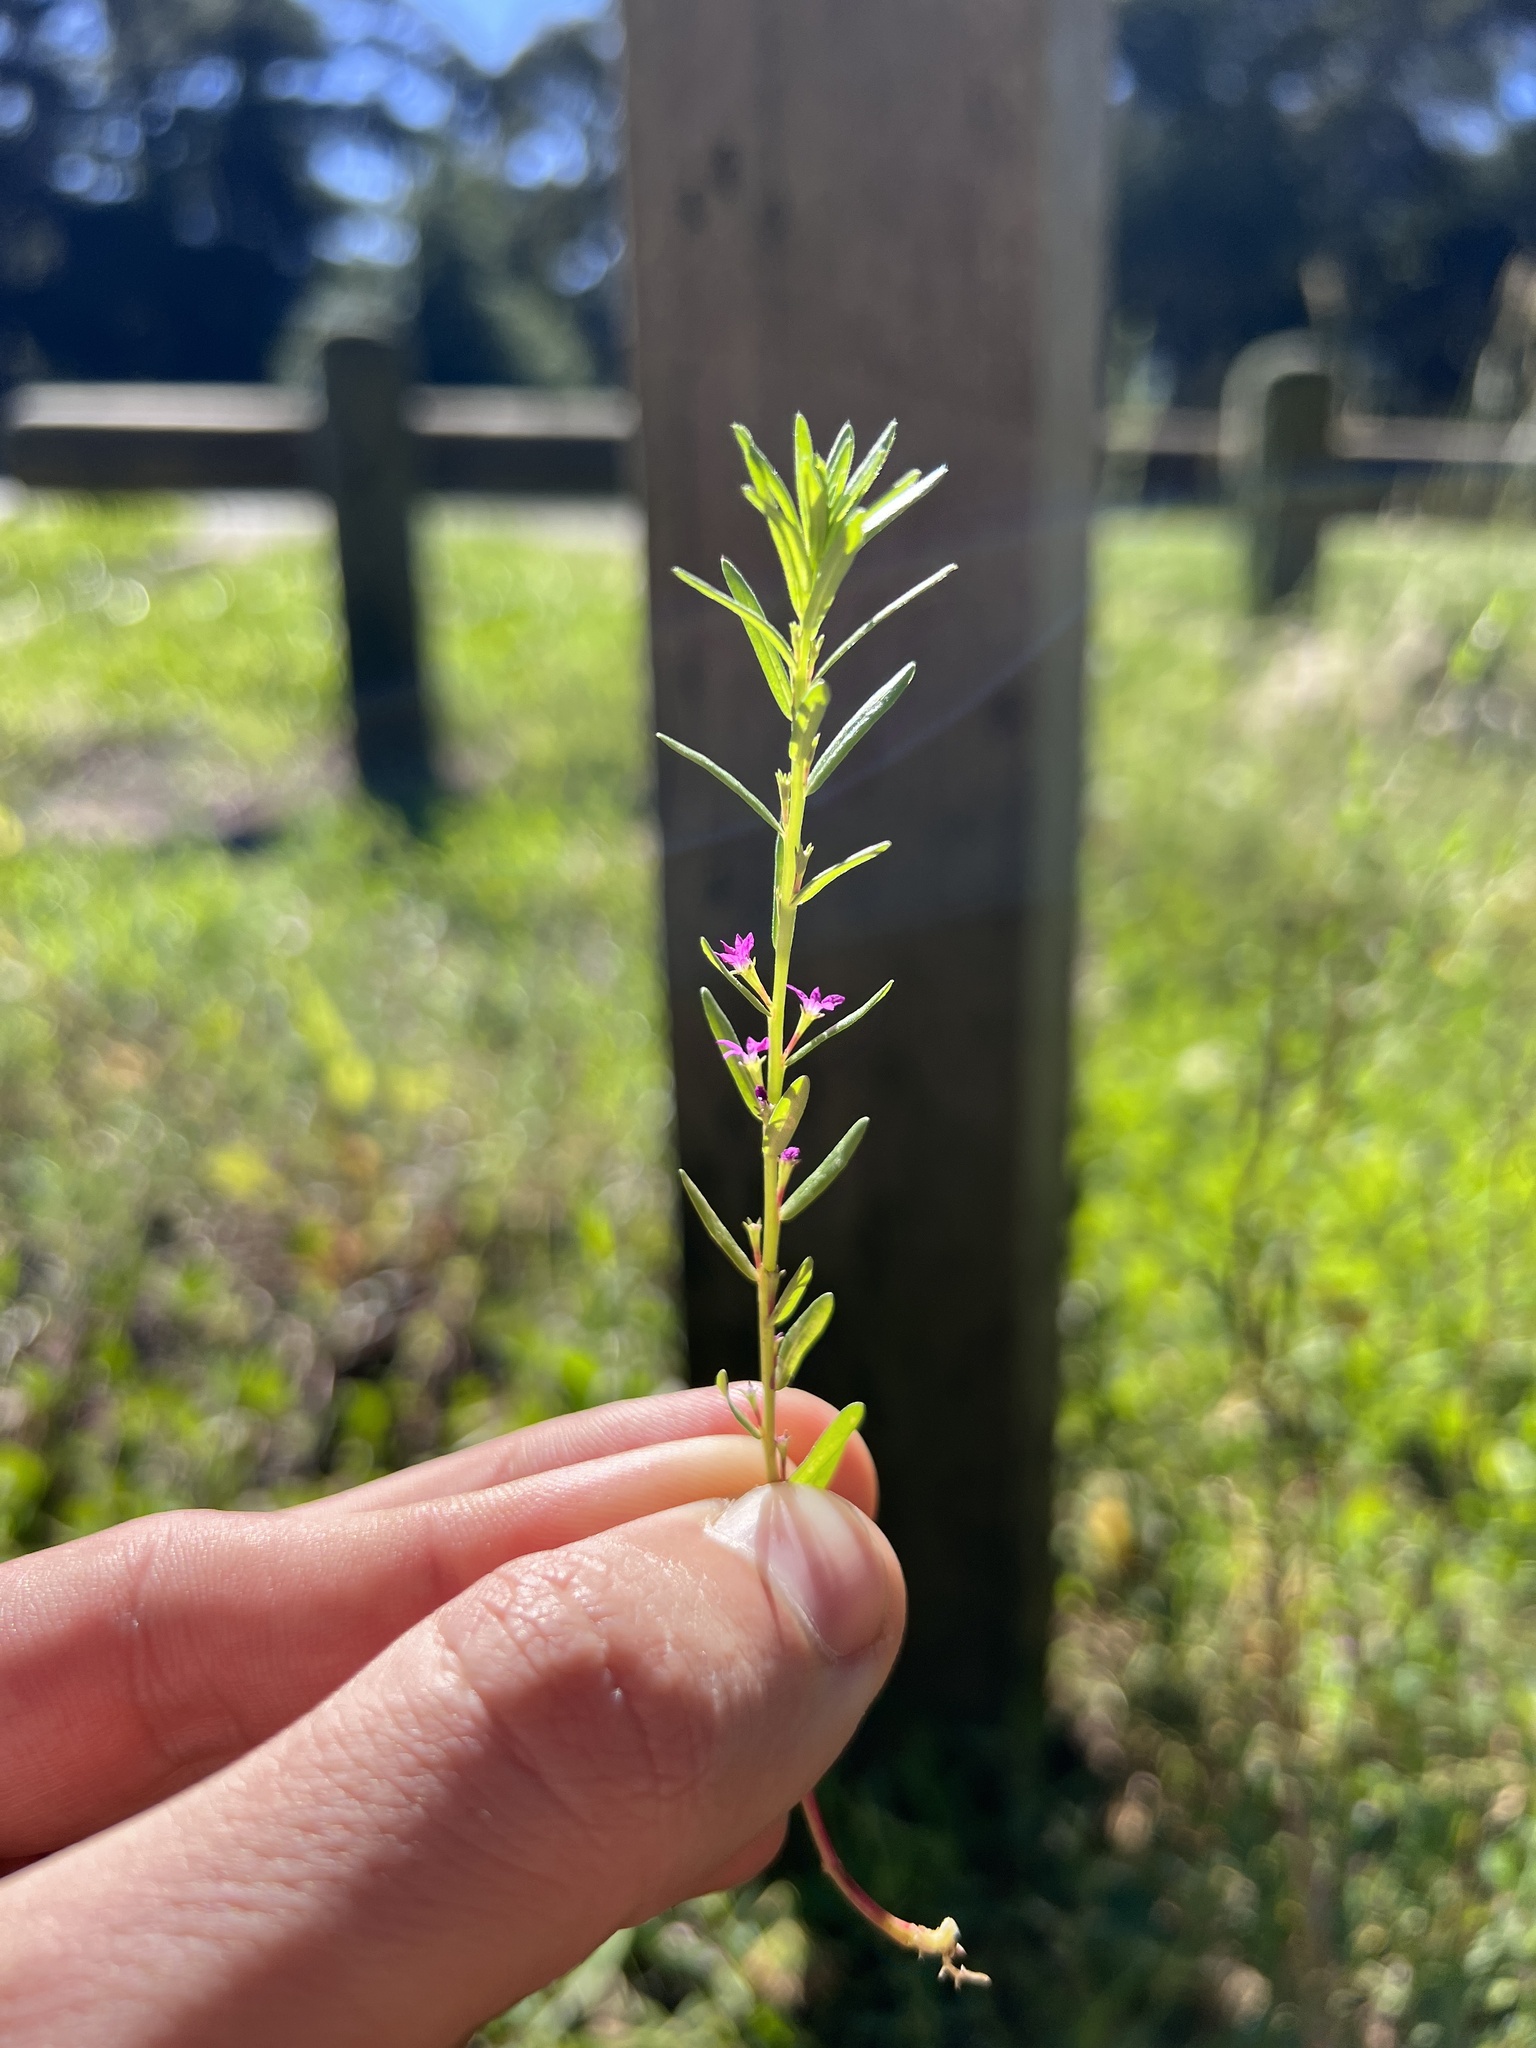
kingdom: Plantae
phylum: Tracheophyta
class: Magnoliopsida
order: Myrtales
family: Lythraceae
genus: Lythrum
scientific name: Lythrum hyssopifolia
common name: Grass-poly
